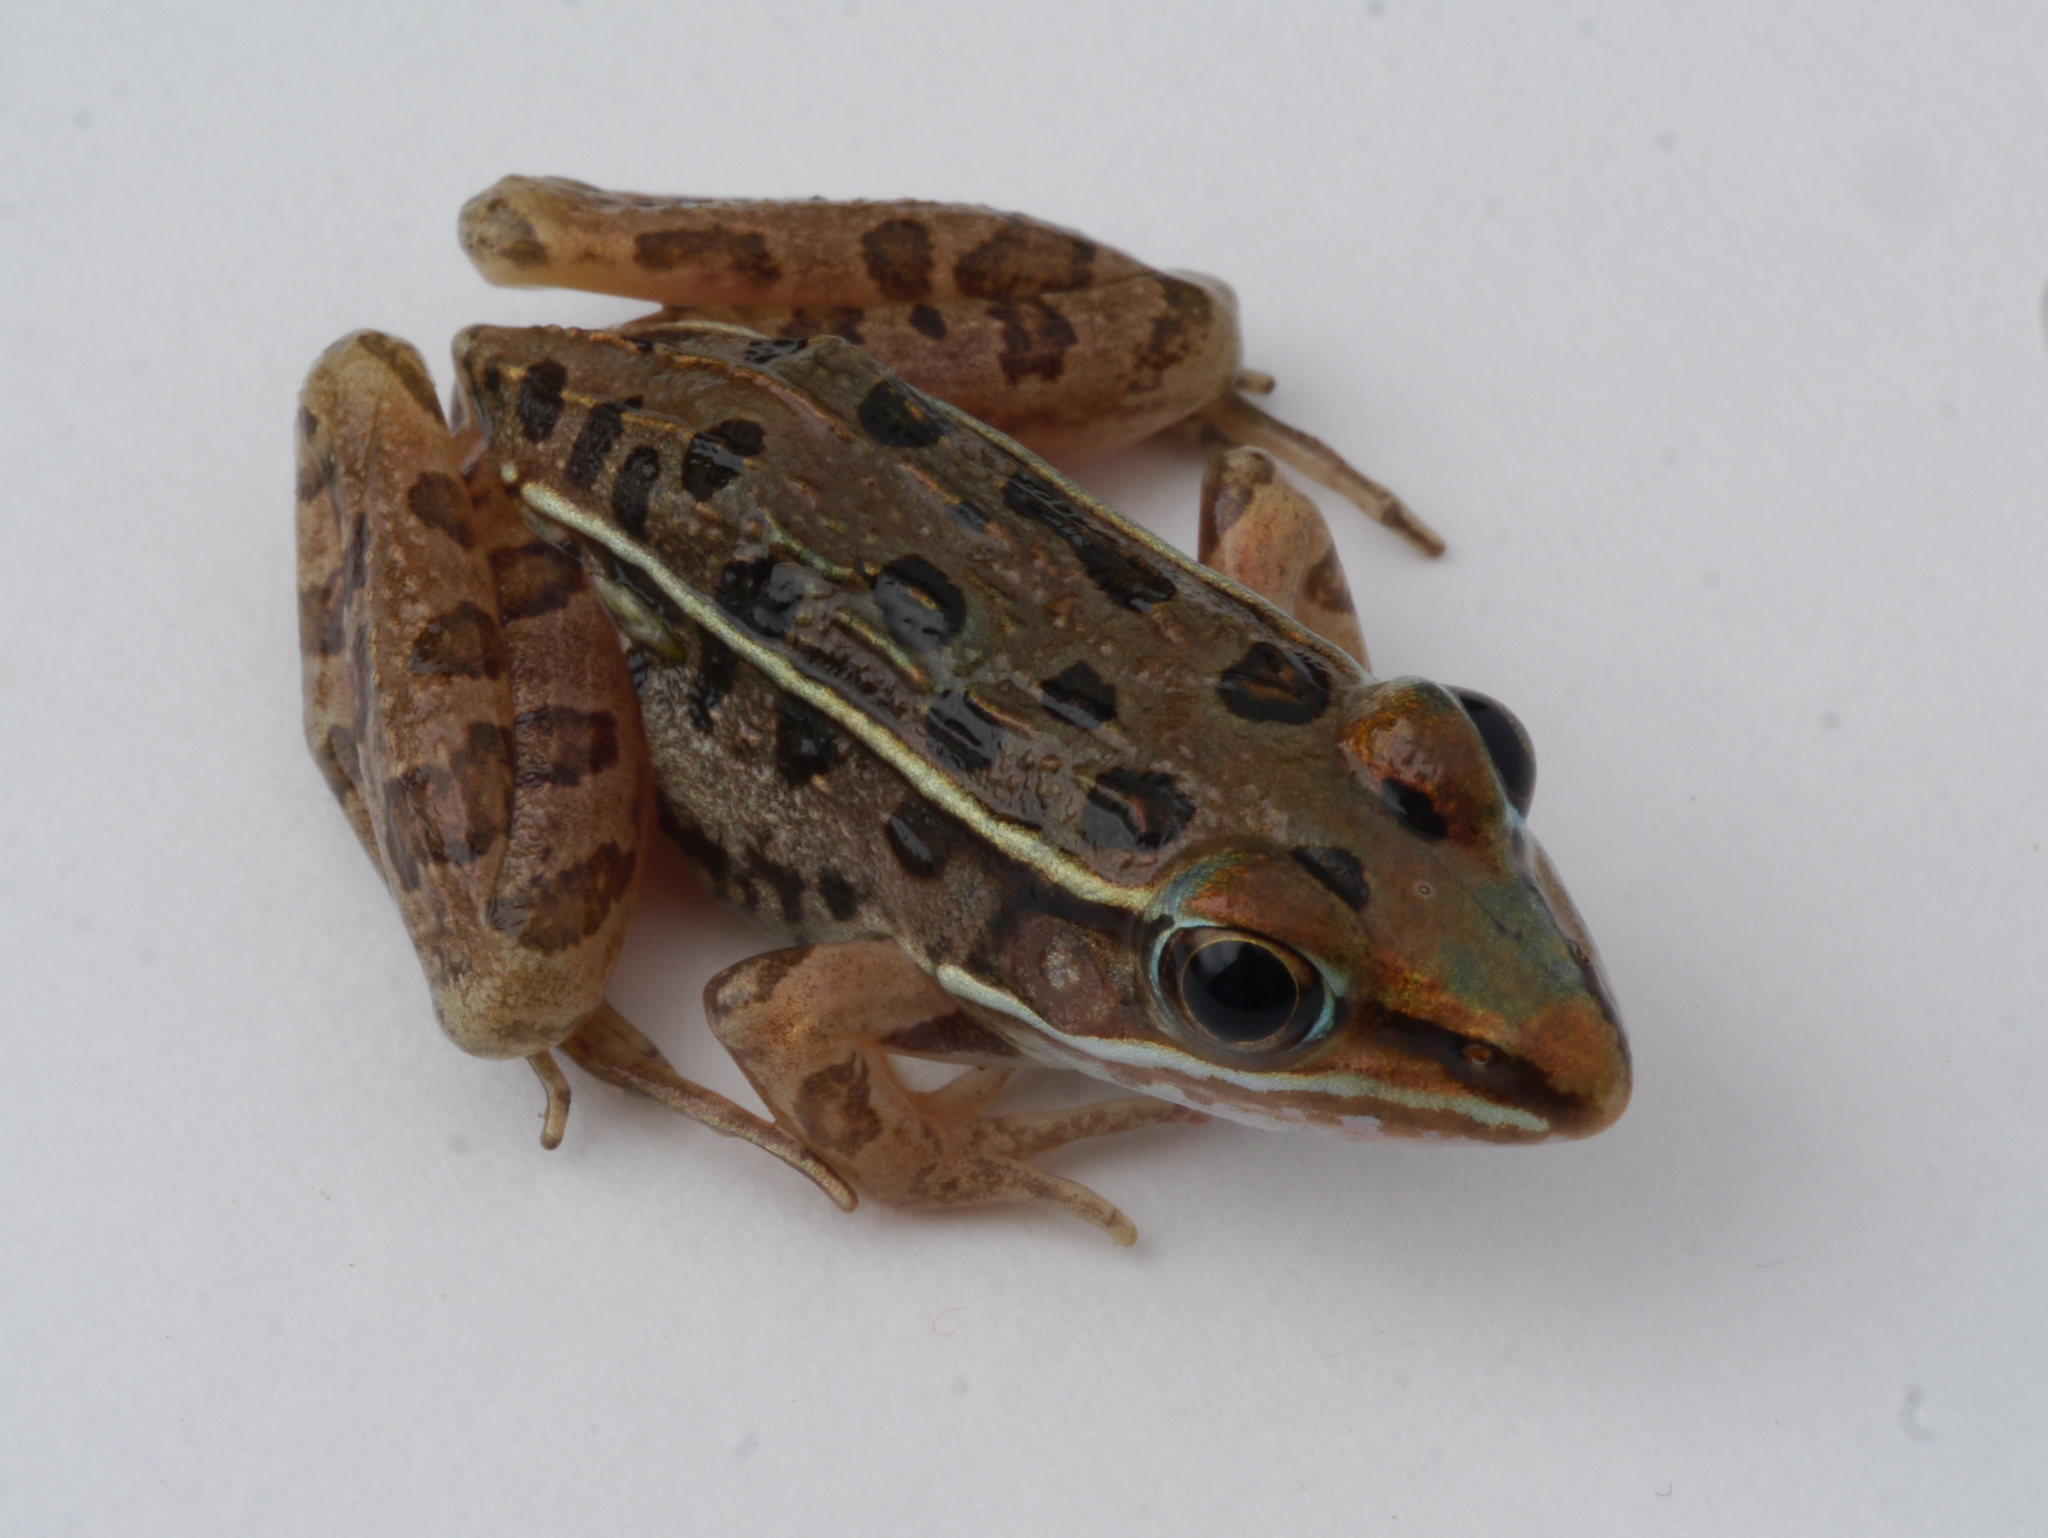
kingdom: Animalia
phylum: Chordata
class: Amphibia
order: Anura
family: Ranidae
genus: Lithobates
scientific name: Lithobates sphenocephalus
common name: Southern leopard frog
